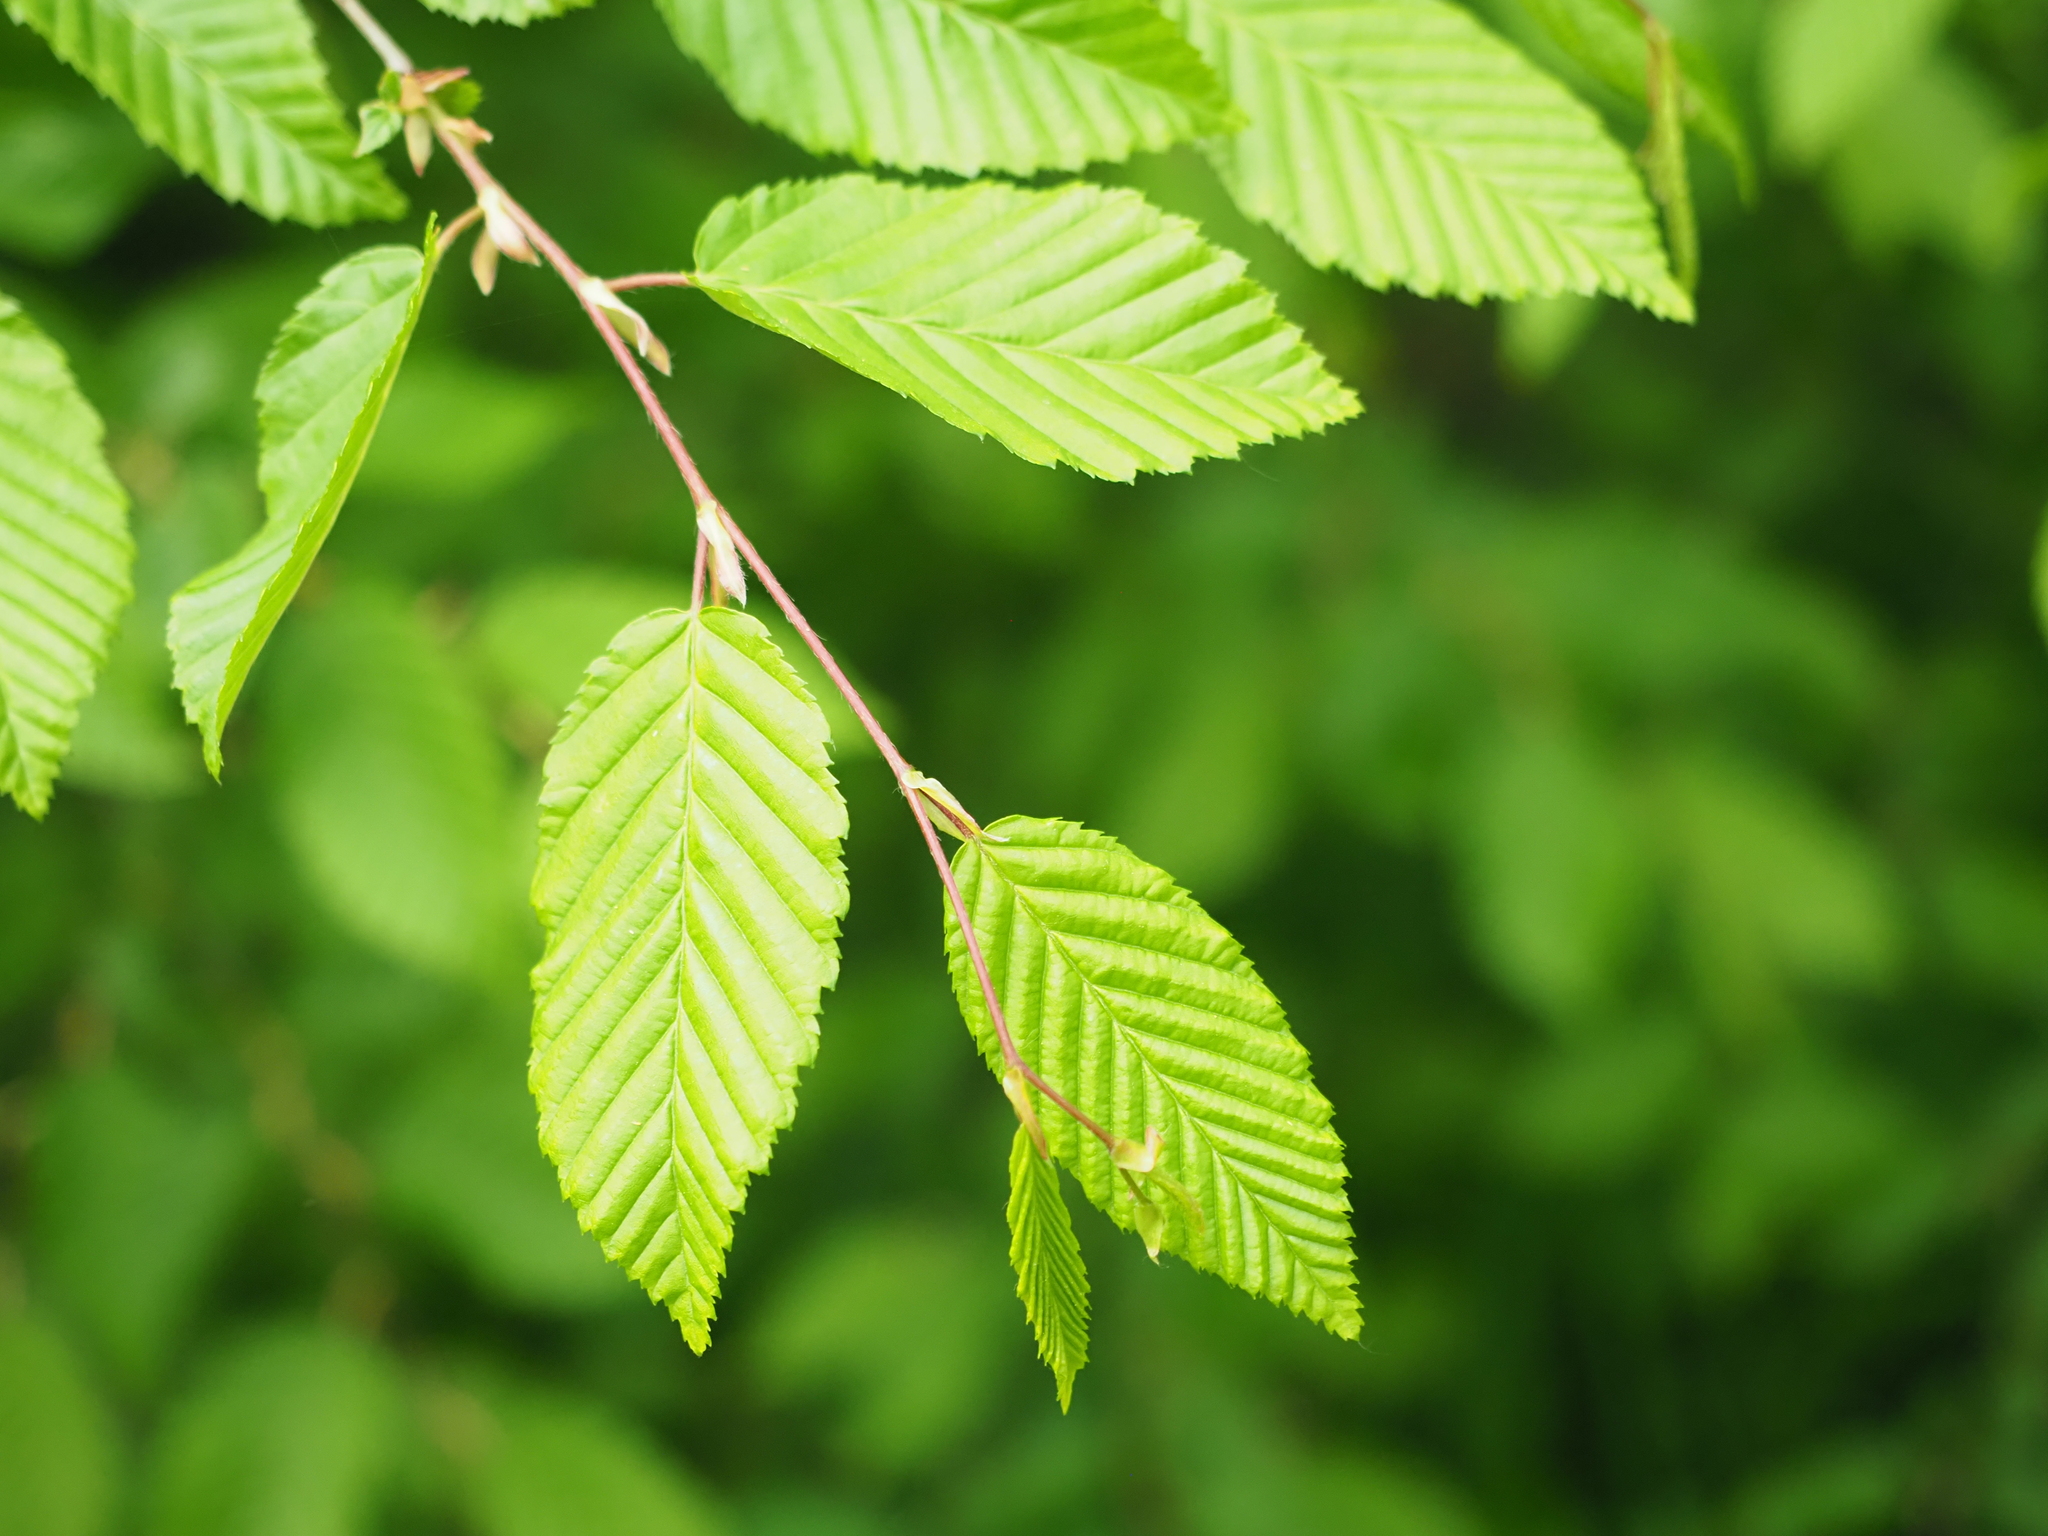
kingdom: Plantae
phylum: Tracheophyta
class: Magnoliopsida
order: Fagales
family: Betulaceae
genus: Carpinus
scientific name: Carpinus betulus
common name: Hornbeam
